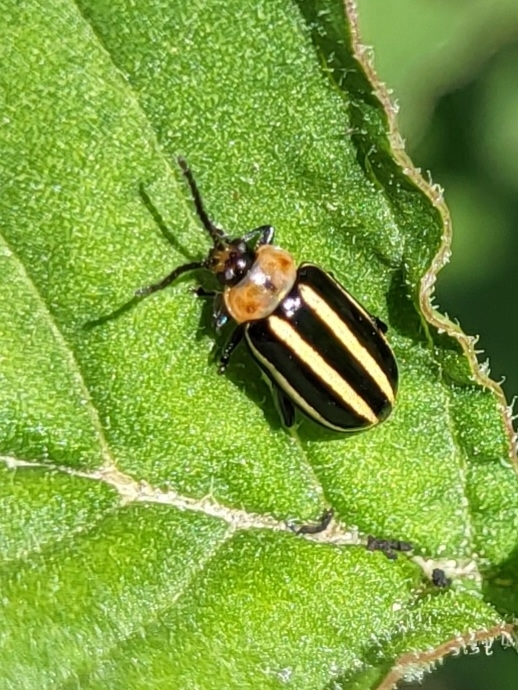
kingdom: Animalia
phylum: Arthropoda
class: Insecta
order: Coleoptera
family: Chrysomelidae
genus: Disonycha
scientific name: Disonycha glabrata
